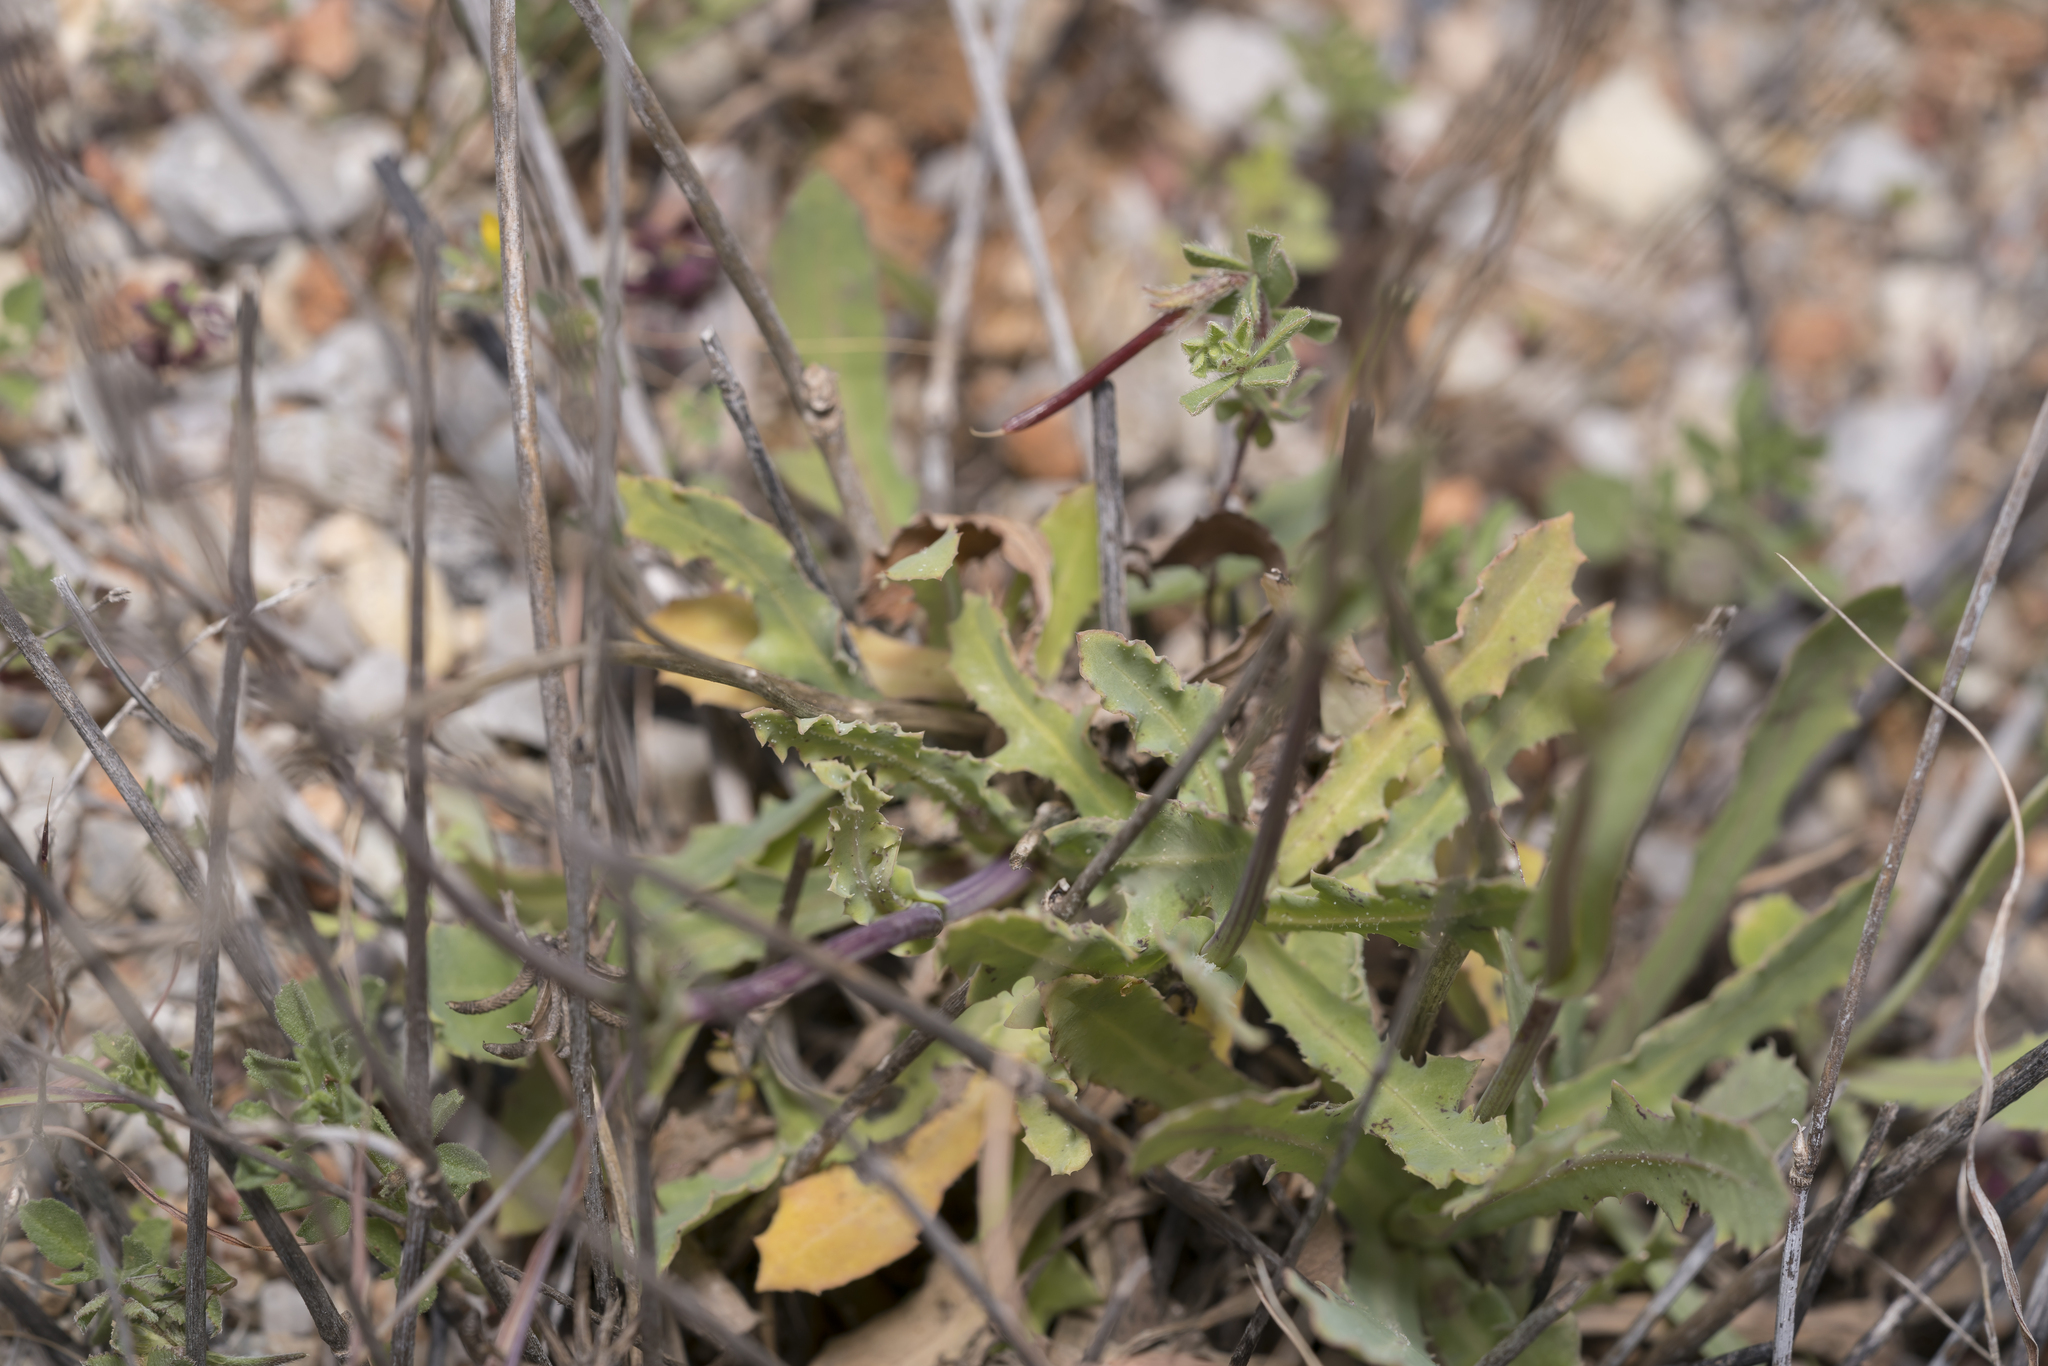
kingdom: Plantae
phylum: Tracheophyta
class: Magnoliopsida
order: Asterales
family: Asteraceae
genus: Reichardia
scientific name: Reichardia picroides
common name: Common brighteyes
